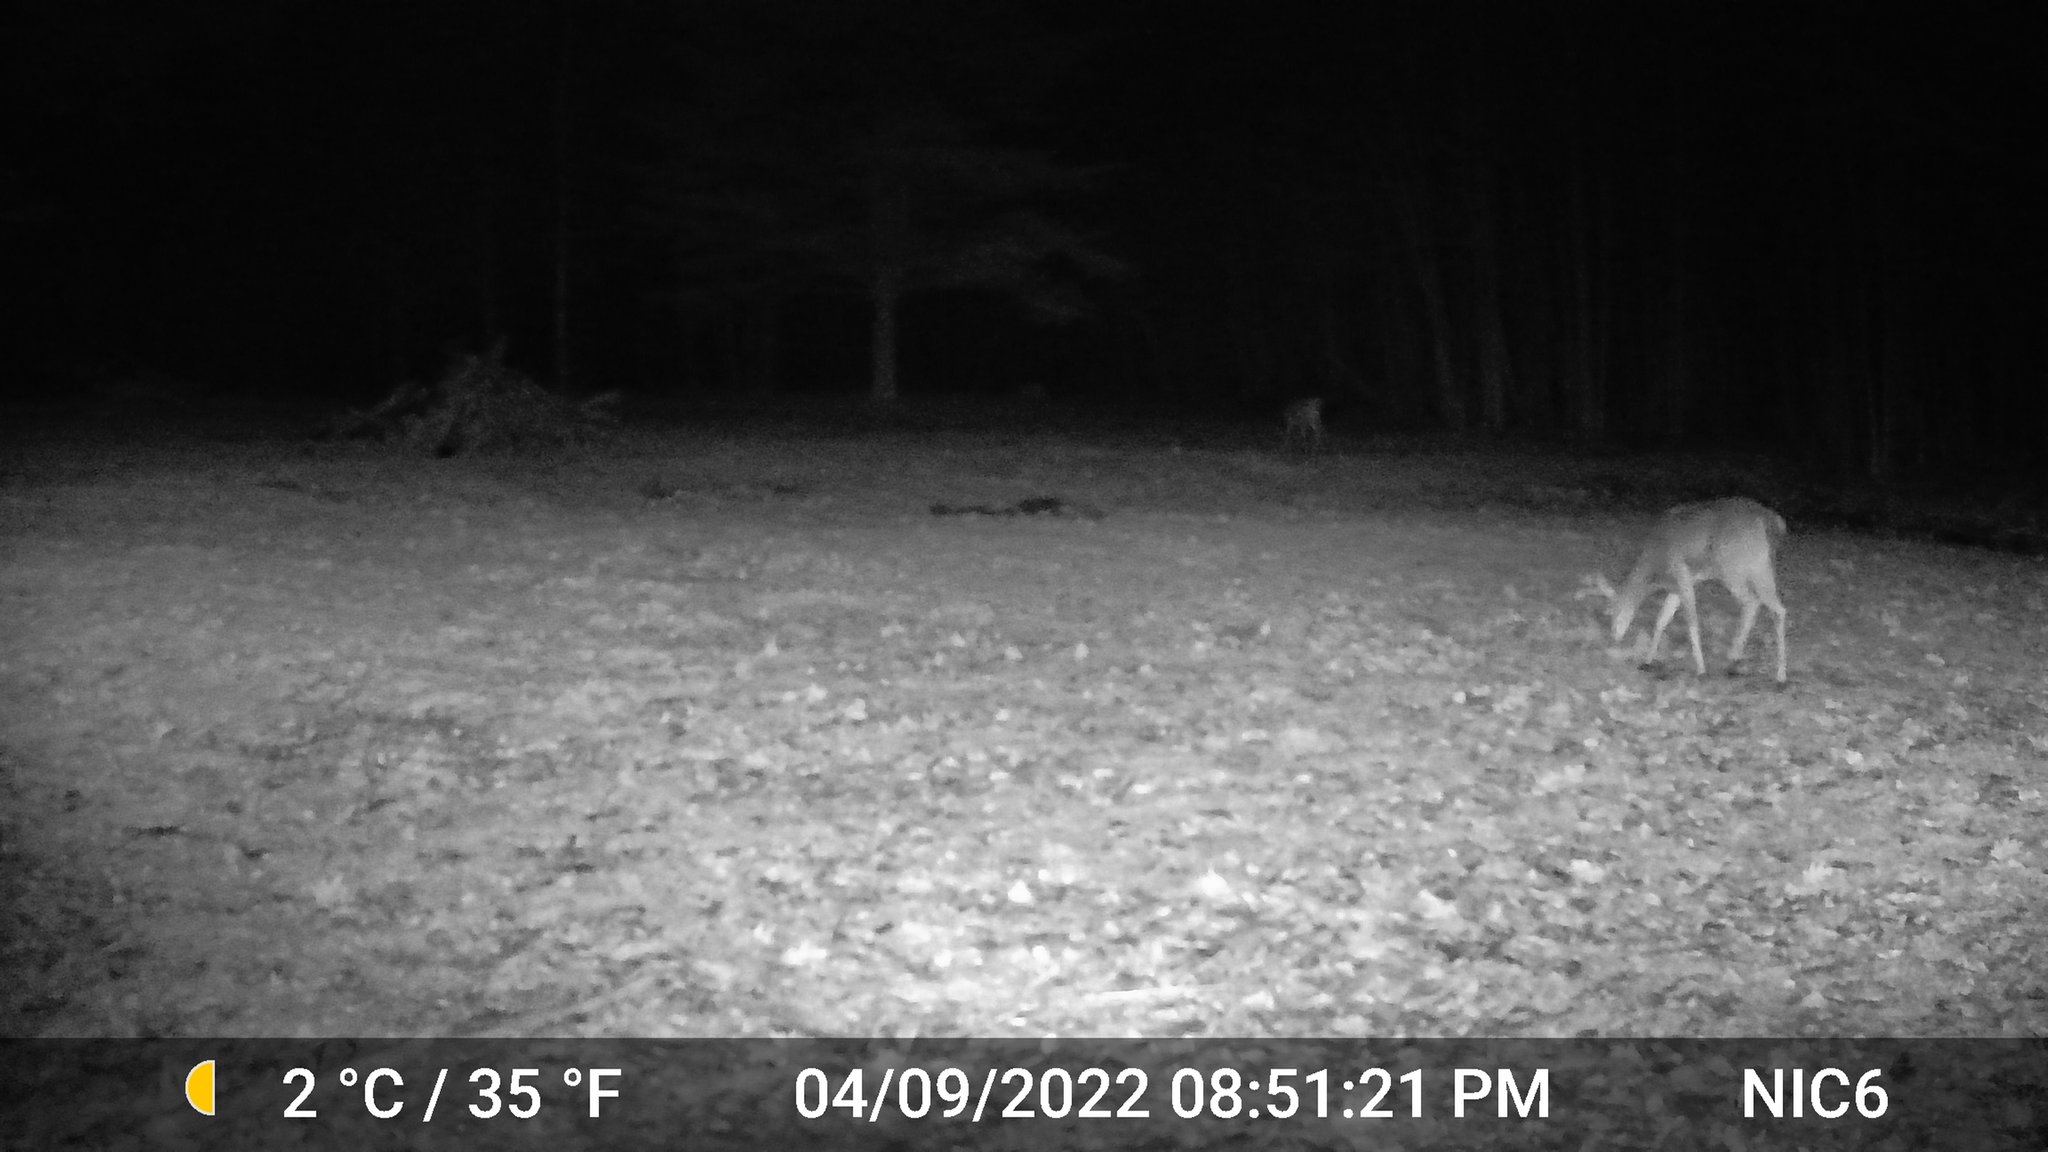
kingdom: Animalia
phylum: Chordata
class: Mammalia
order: Artiodactyla
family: Cervidae
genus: Odocoileus
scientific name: Odocoileus virginianus
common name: White-tailed deer
